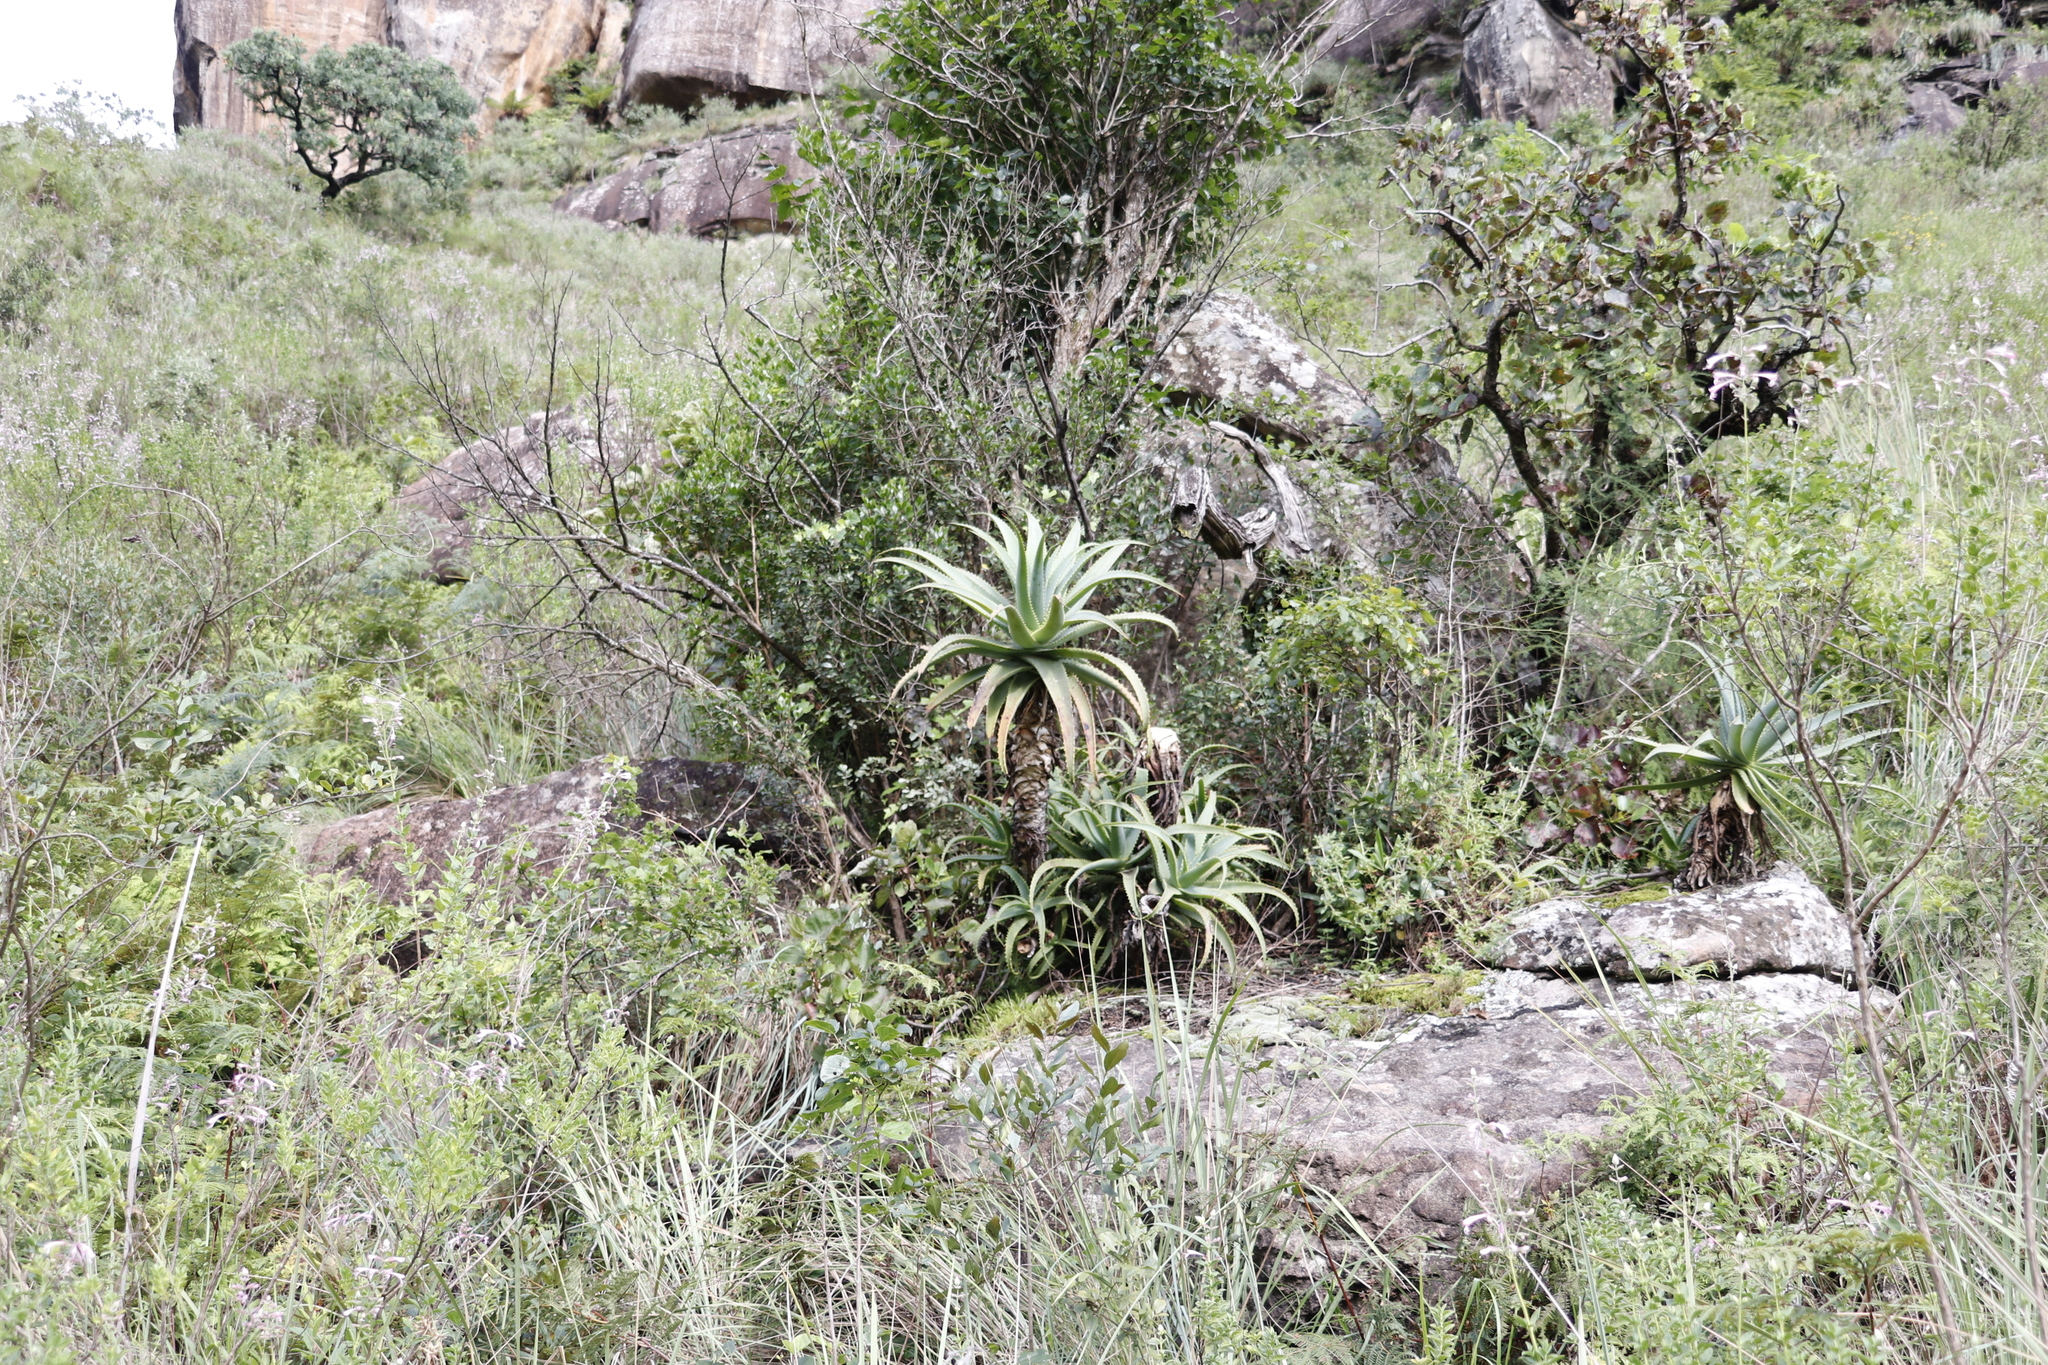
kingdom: Plantae
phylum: Tracheophyta
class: Liliopsida
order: Asparagales
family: Asphodelaceae
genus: Aloe
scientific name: Aloe arborescens
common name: Candelabra aloe
